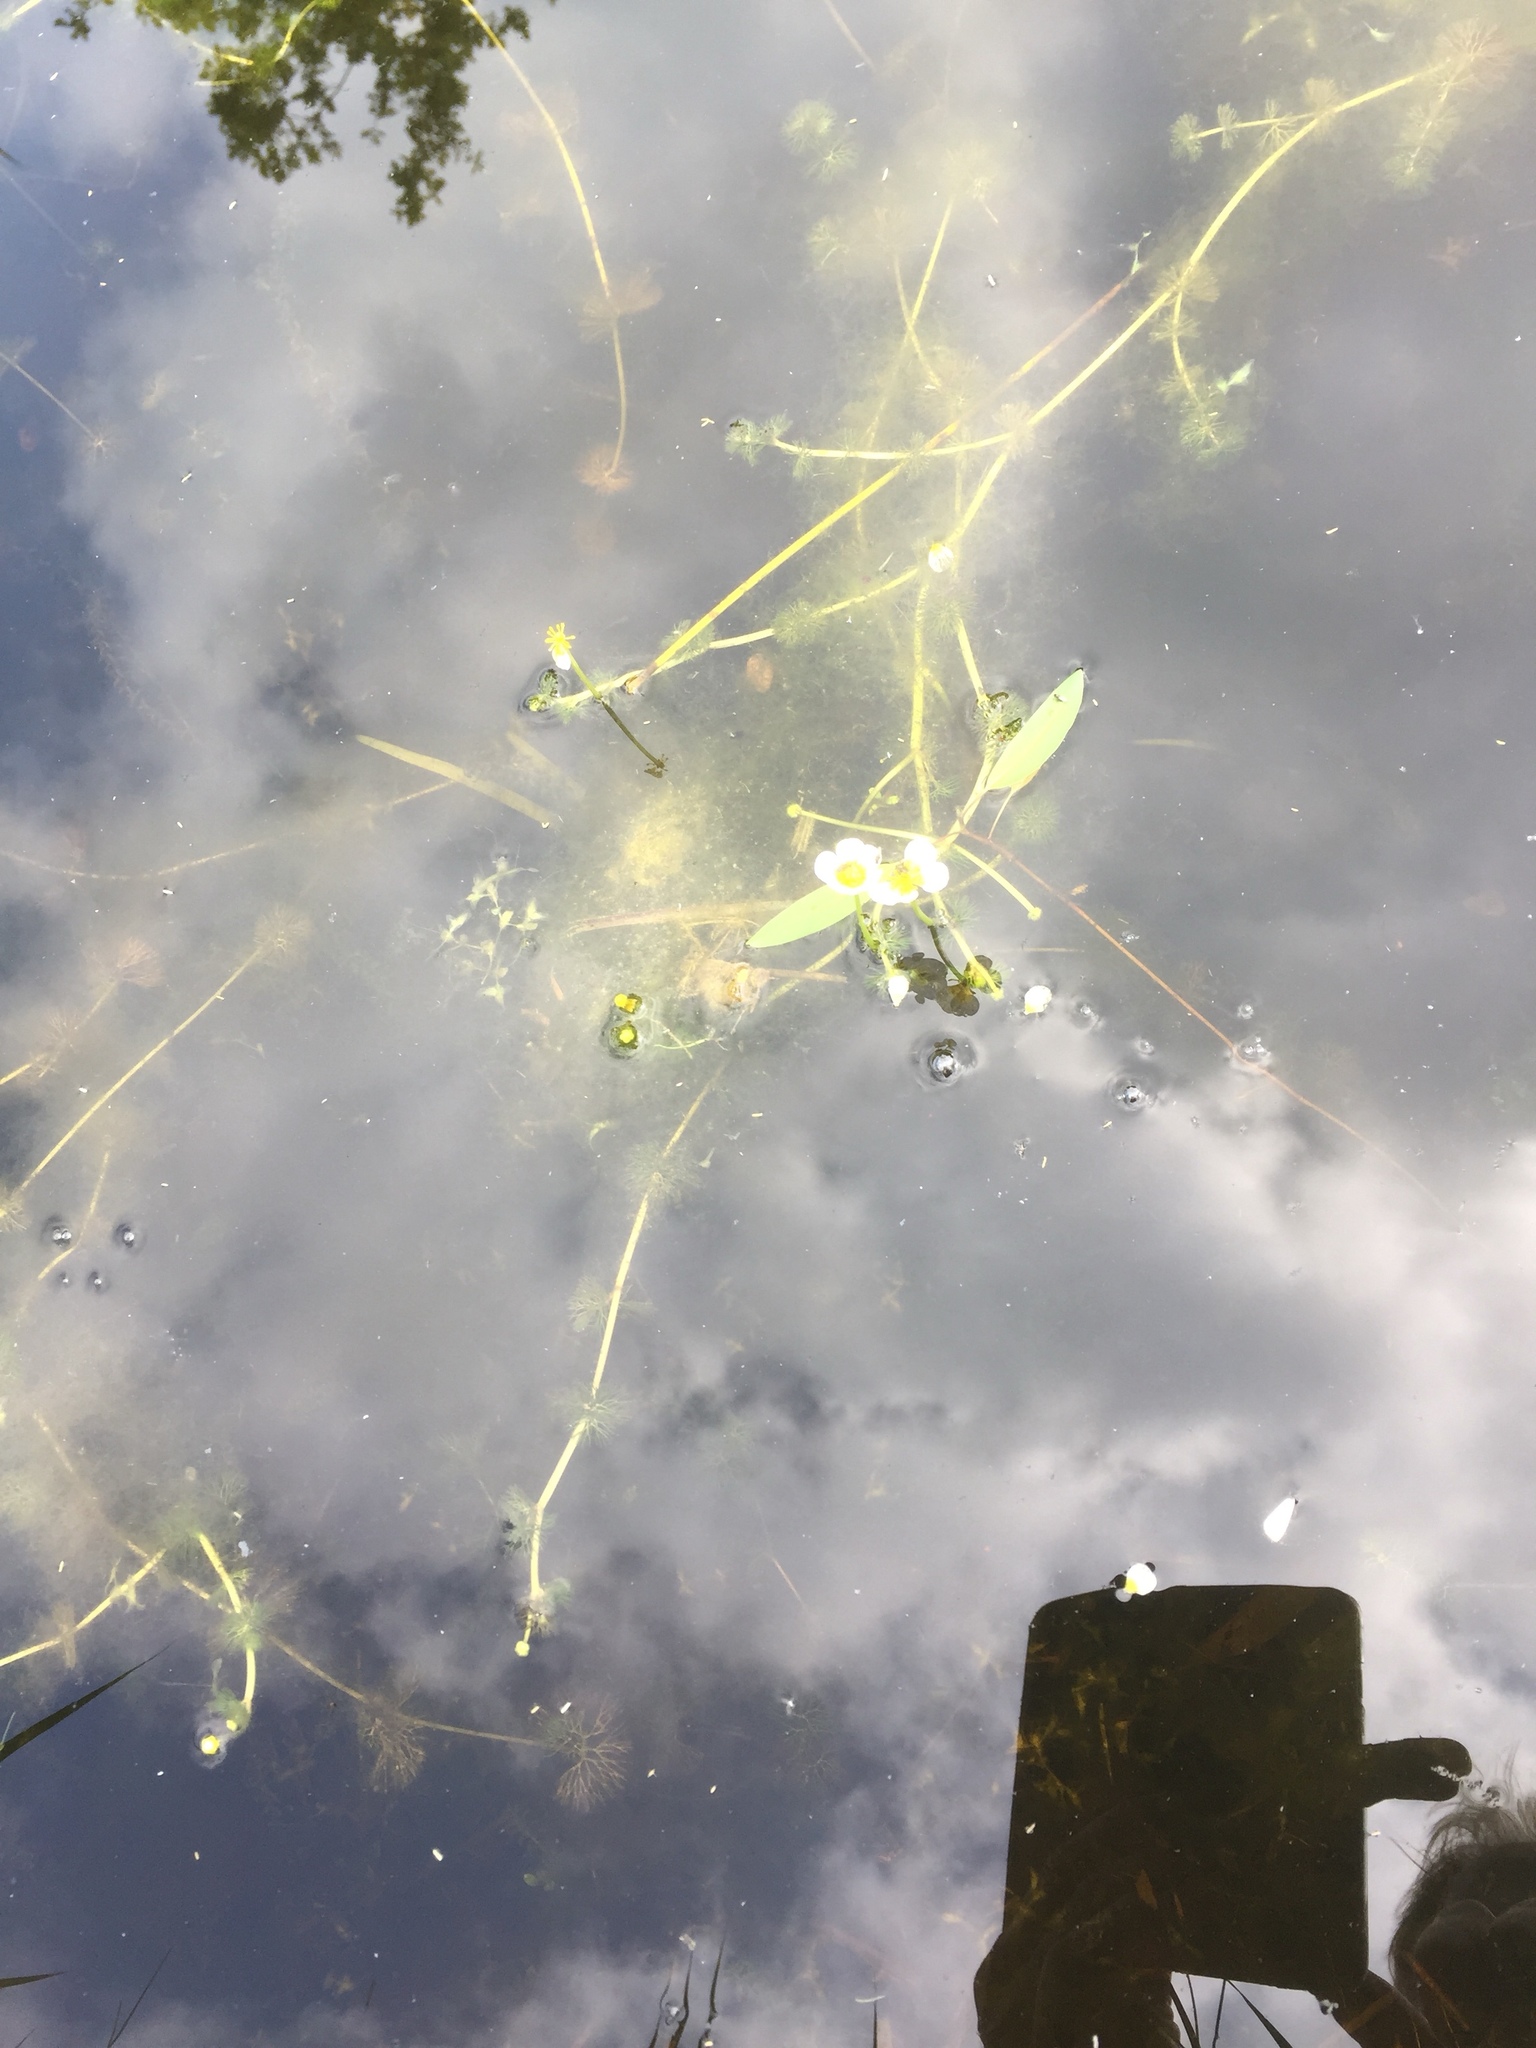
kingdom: Plantae
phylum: Tracheophyta
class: Magnoliopsida
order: Ranunculales
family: Ranunculaceae
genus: Ranunculus
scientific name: Ranunculus circinatus
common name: Fan-leaved water-crowfoot
